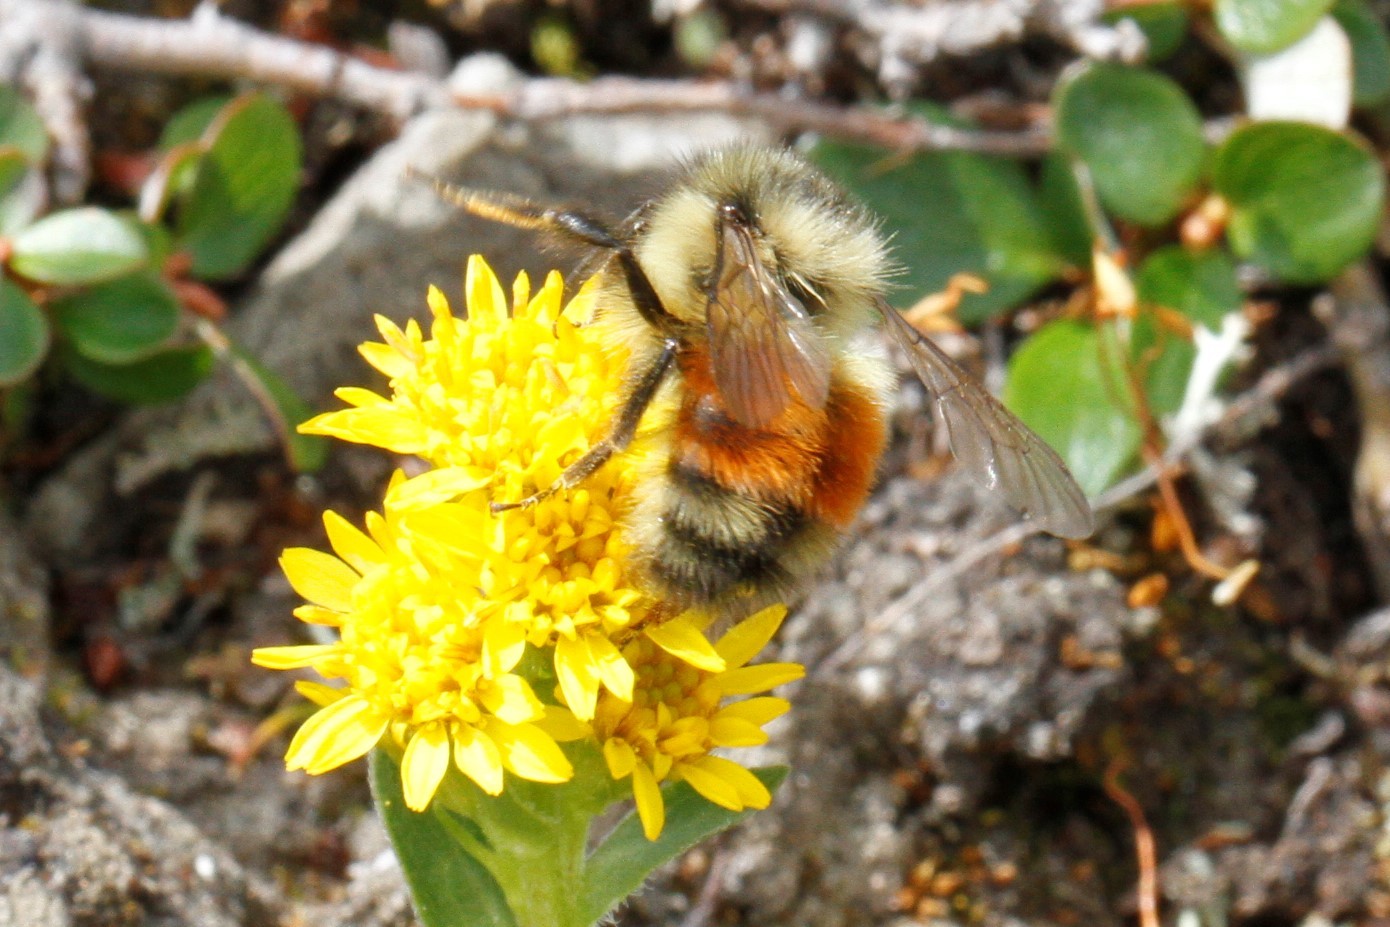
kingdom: Animalia
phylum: Arthropoda
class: Insecta
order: Hymenoptera
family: Apidae
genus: Bombus
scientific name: Bombus melanopygus
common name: Black tail bumble bee
